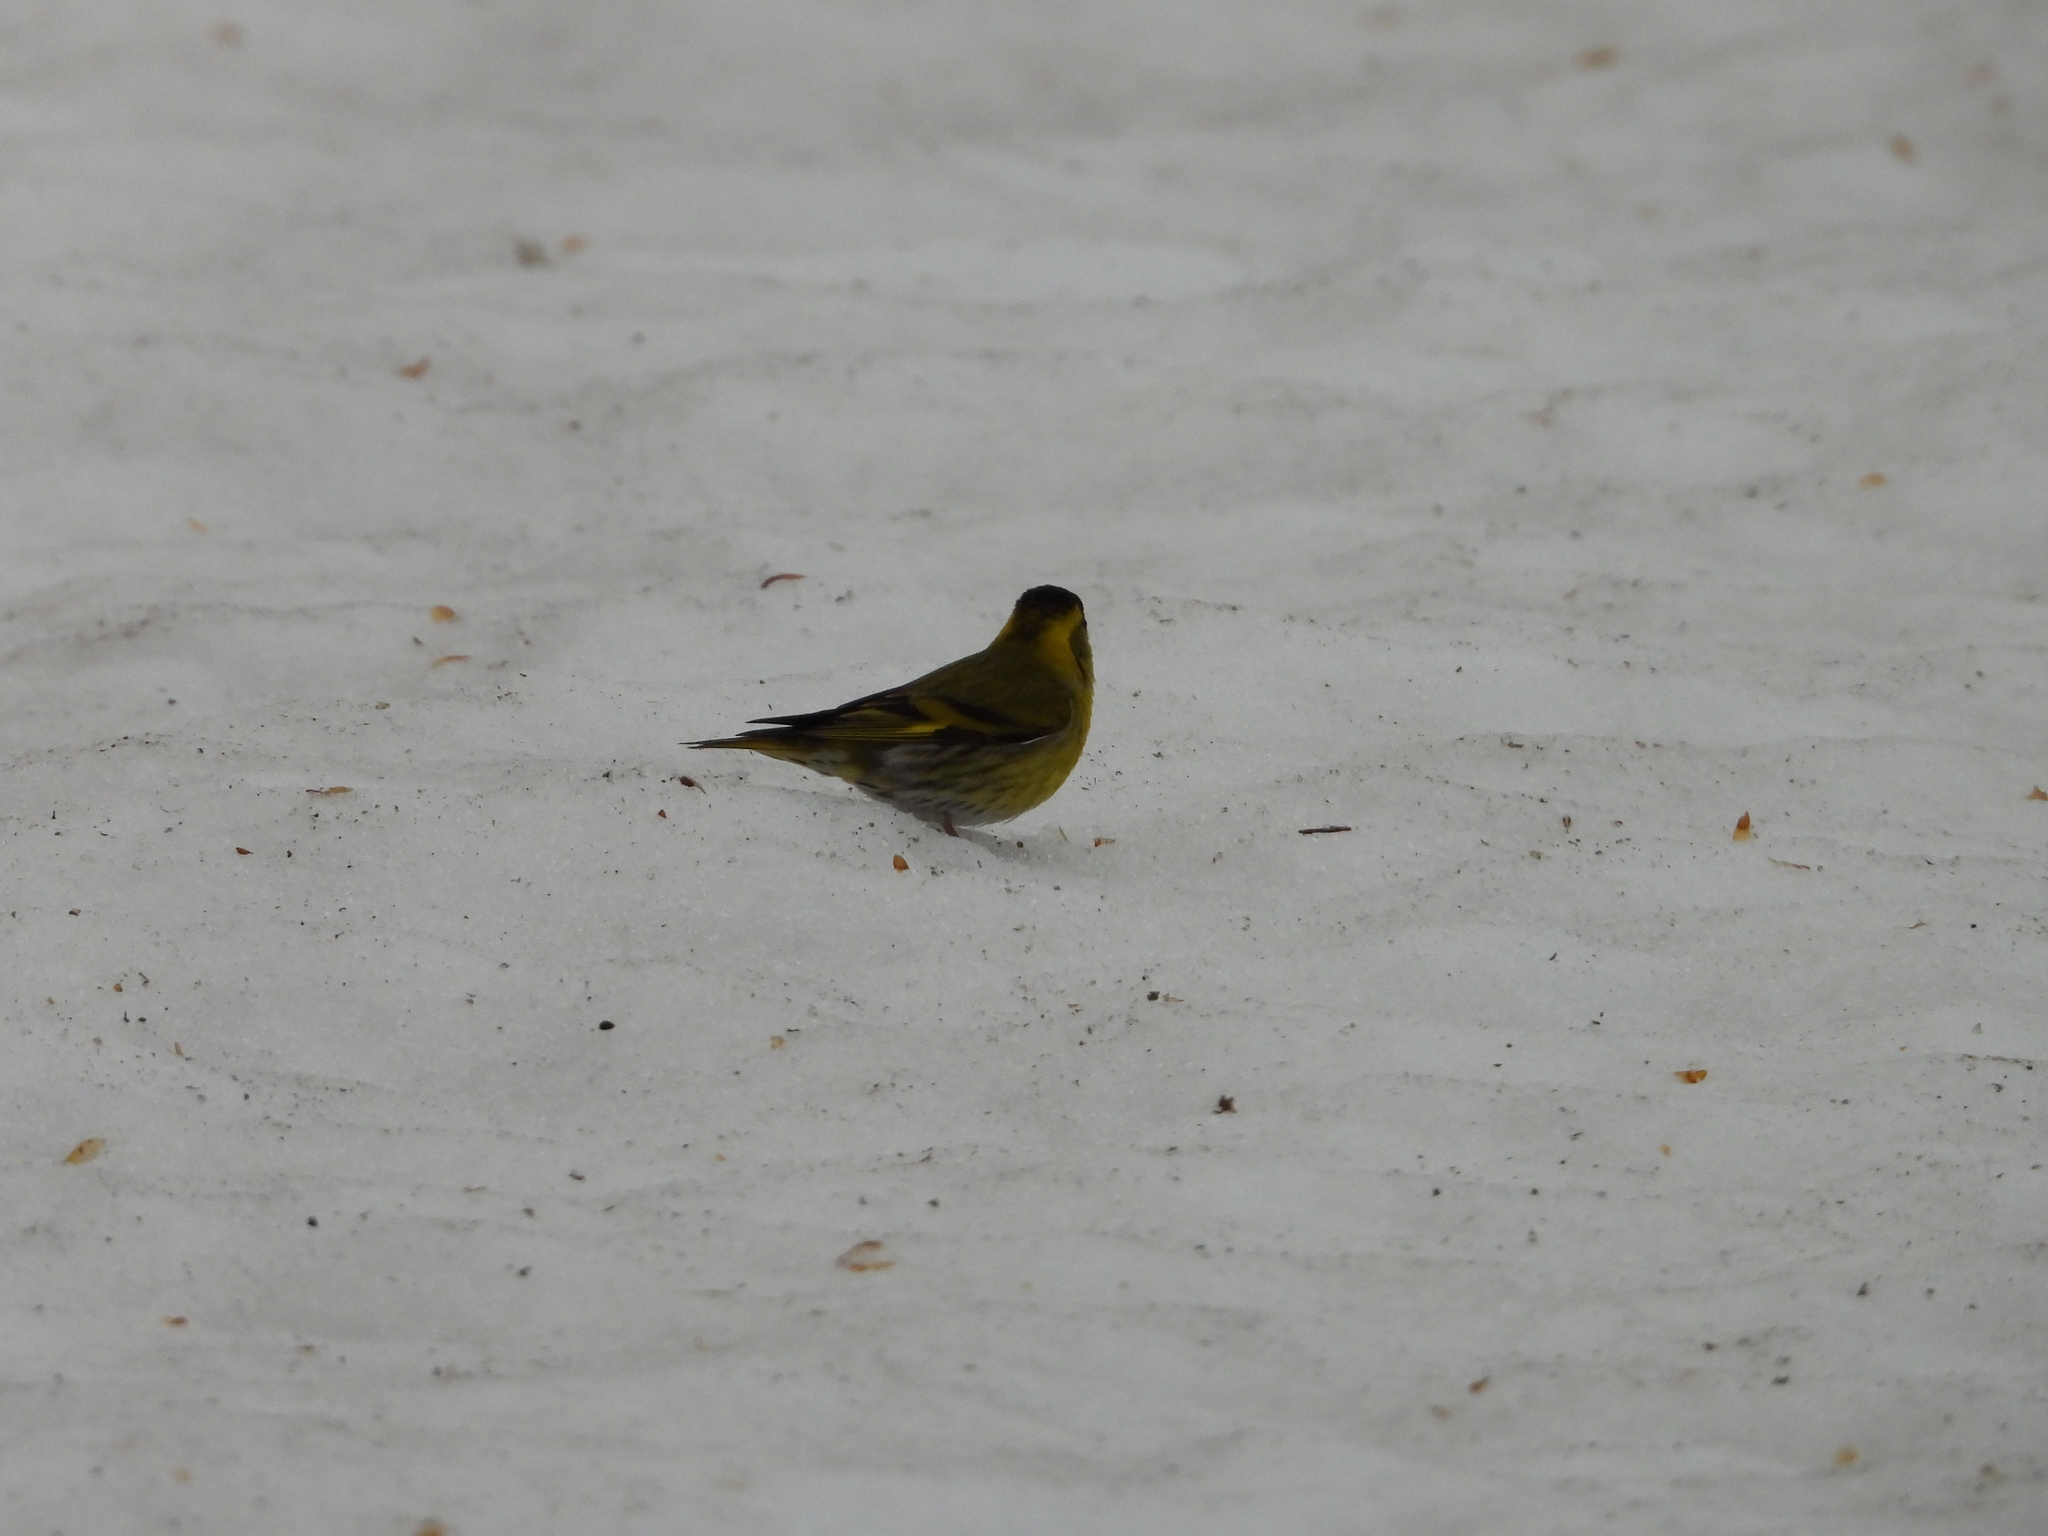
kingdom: Animalia
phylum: Chordata
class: Aves
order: Passeriformes
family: Fringillidae
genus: Spinus
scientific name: Spinus spinus
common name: Eurasian siskin
